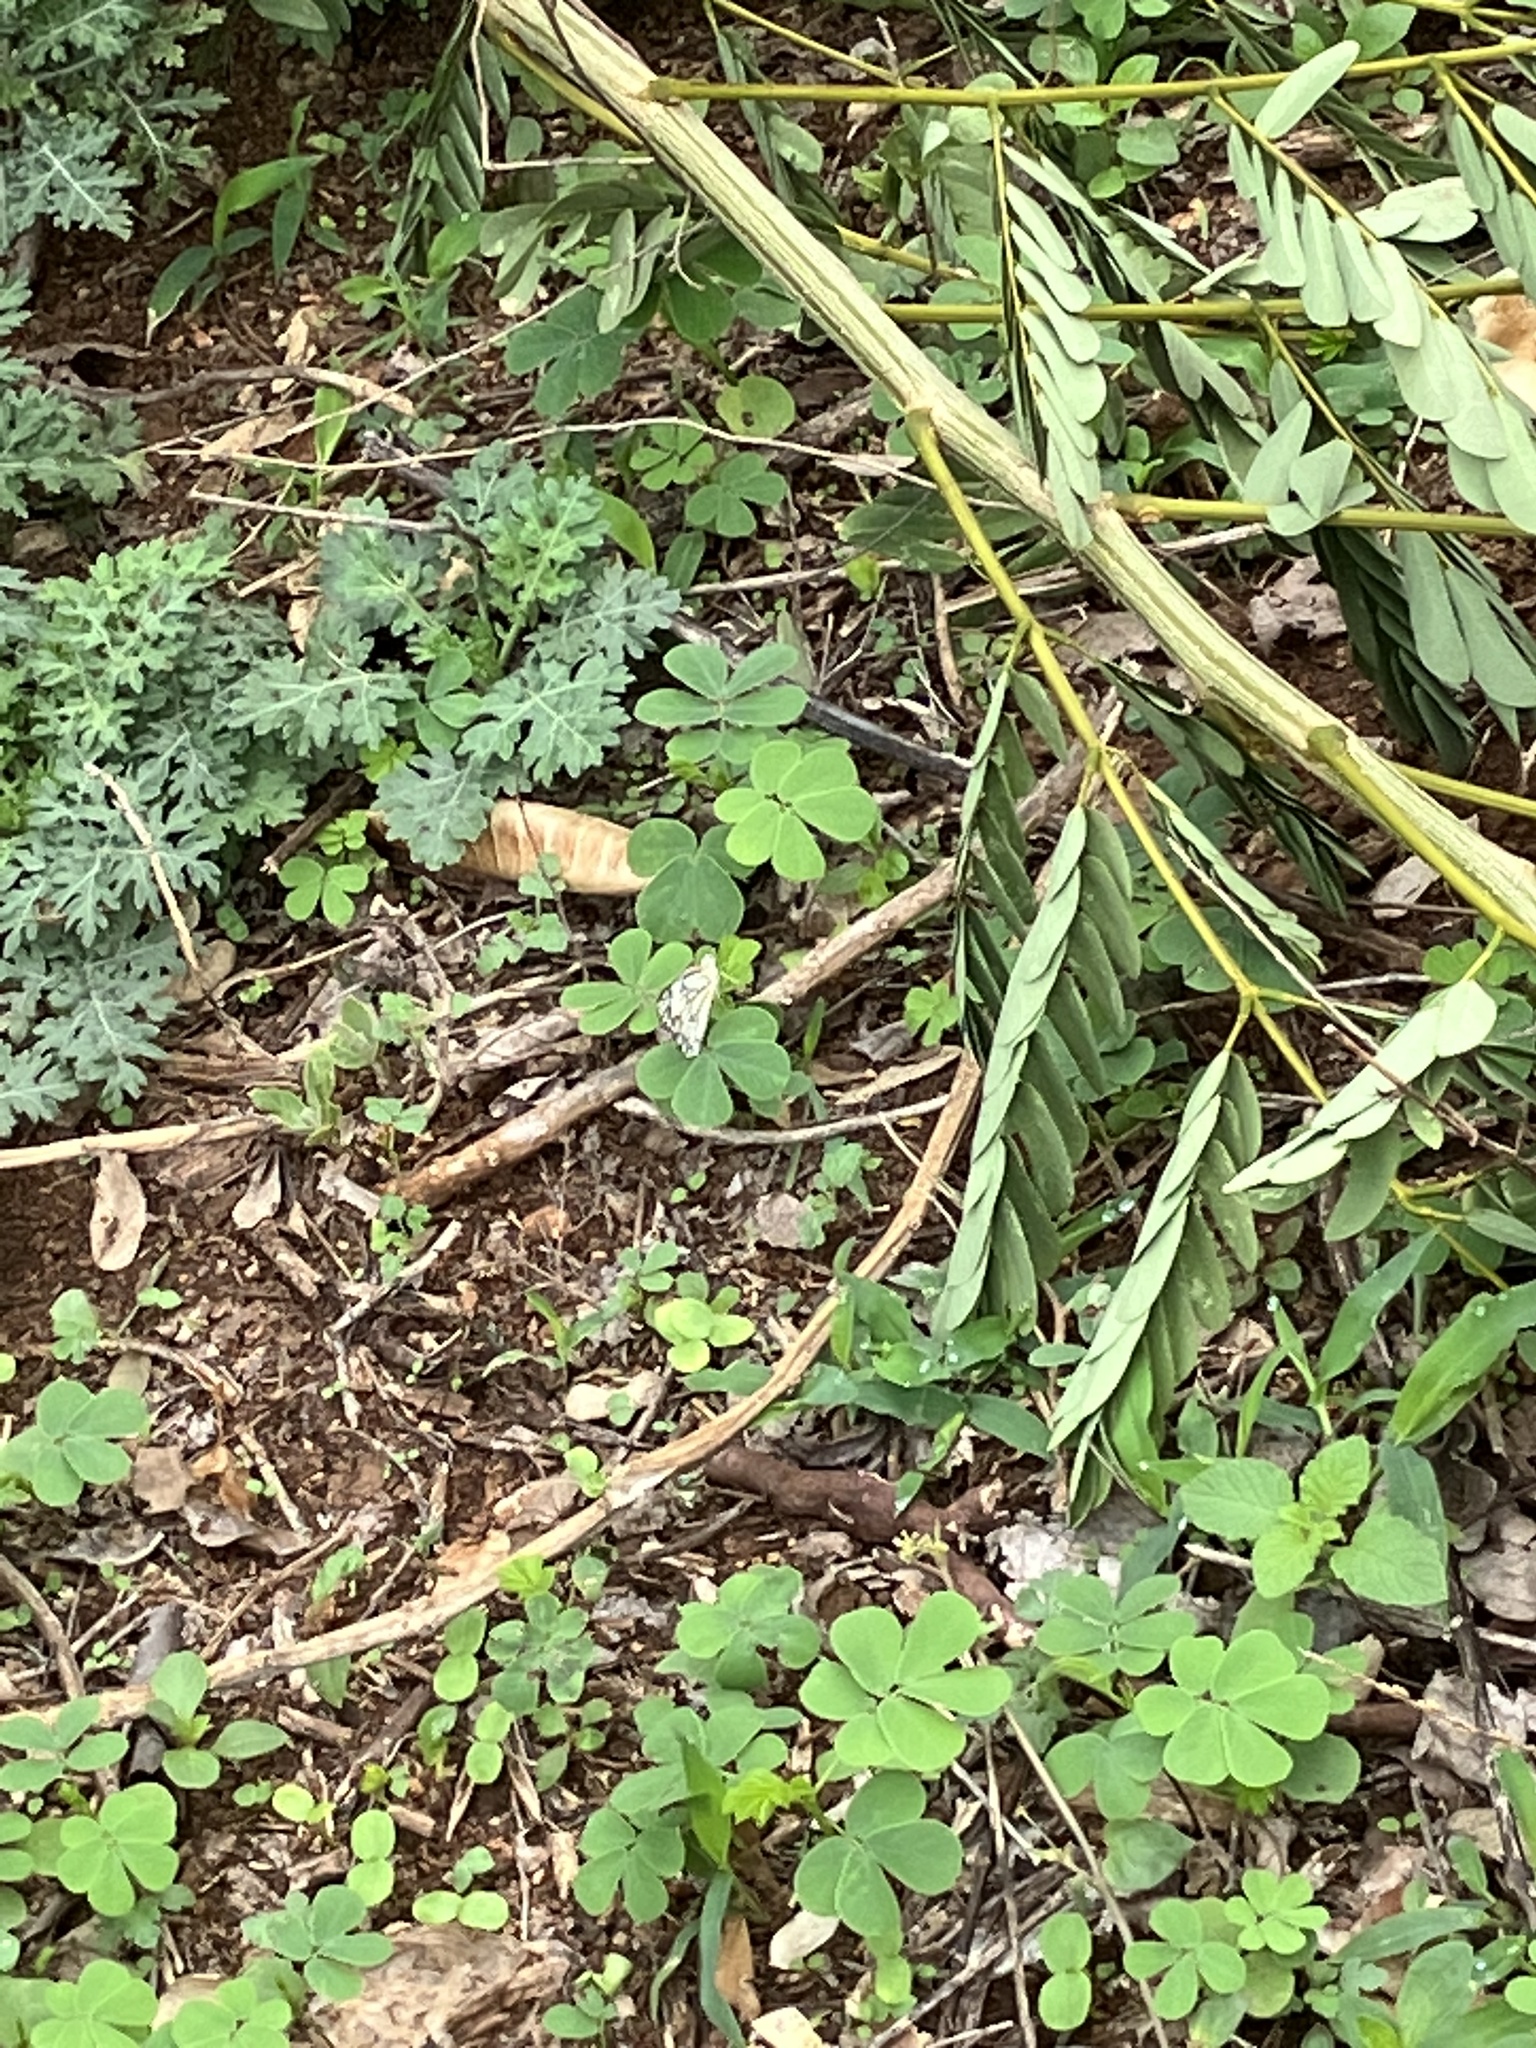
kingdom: Animalia
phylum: Arthropoda
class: Insecta
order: Lepidoptera
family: Pieridae
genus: Belenois
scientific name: Belenois aurota
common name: Brown-veined white
